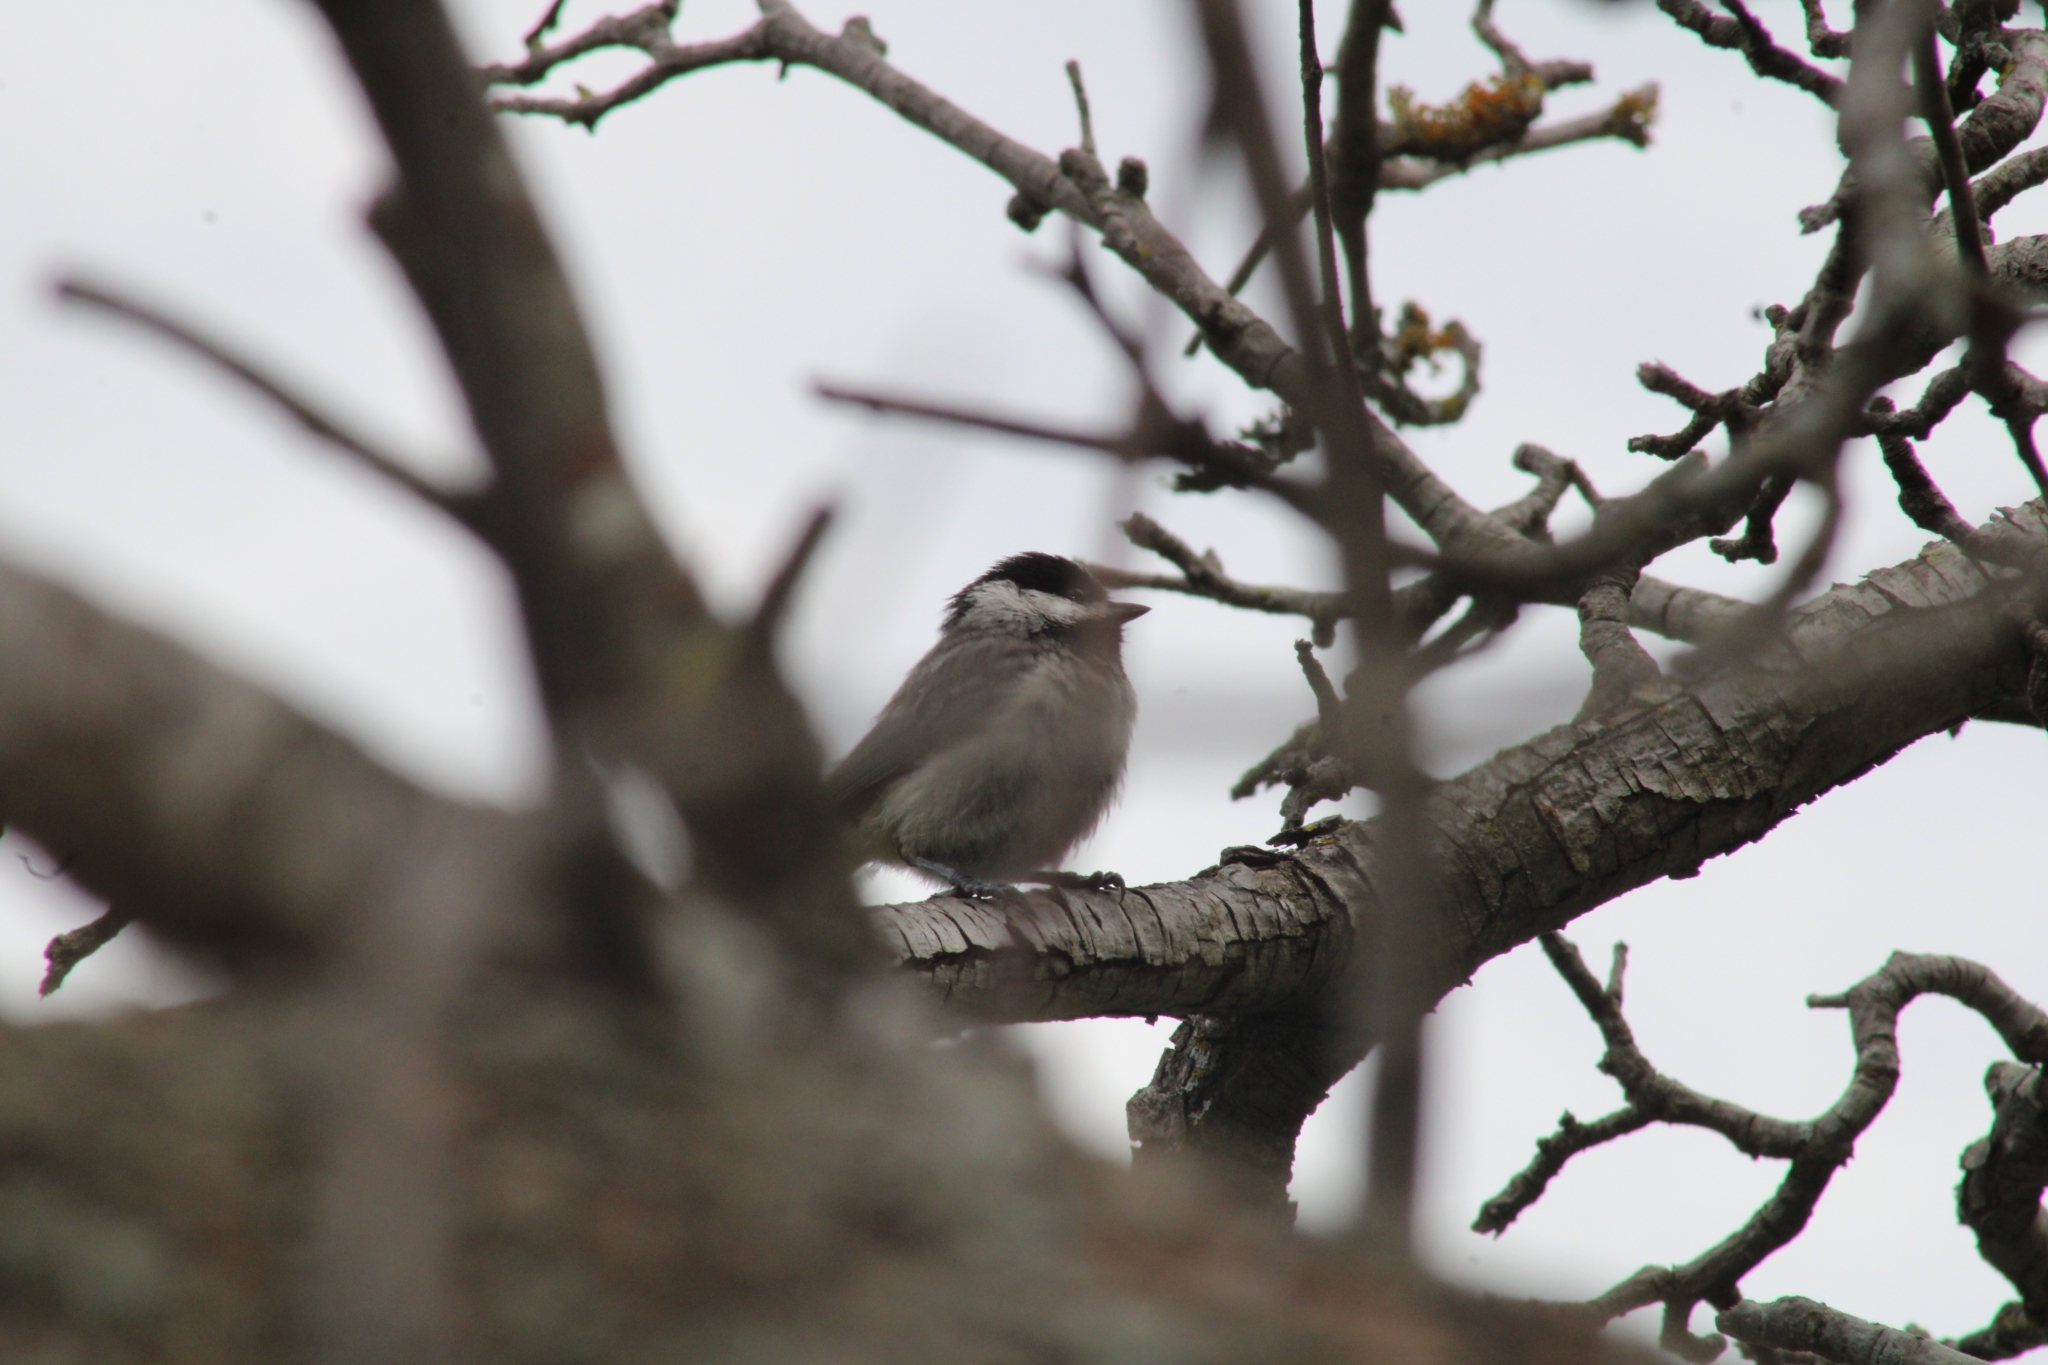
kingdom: Animalia
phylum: Chordata
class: Aves
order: Passeriformes
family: Paridae
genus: Poecile
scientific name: Poecile carolinensis
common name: Carolina chickadee
